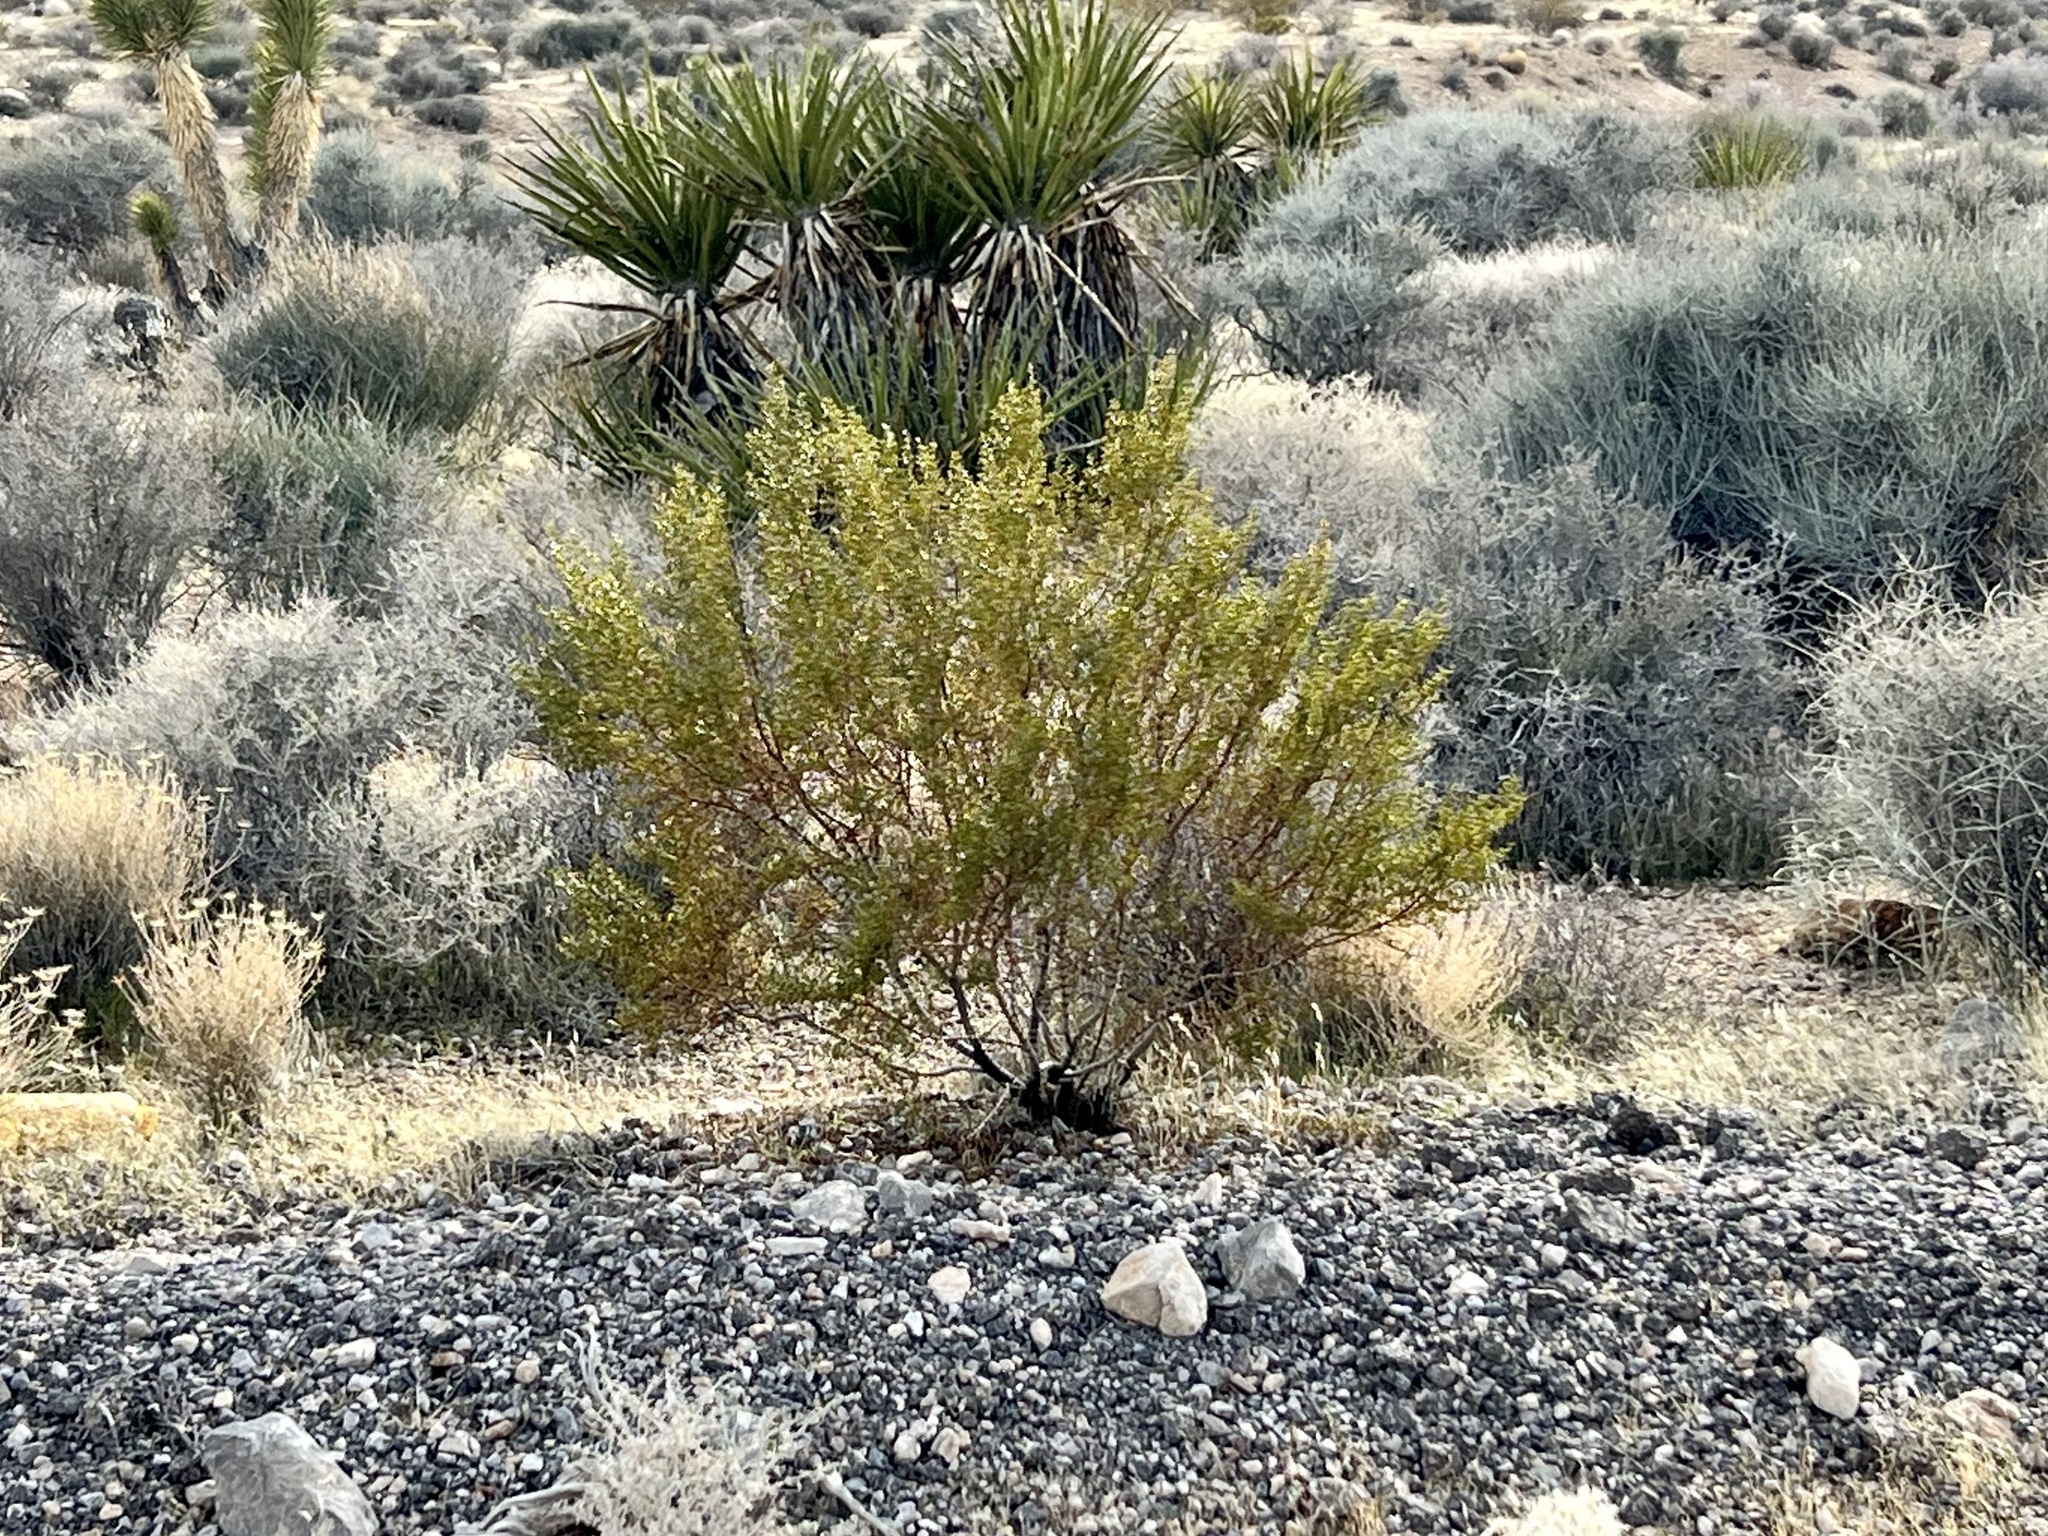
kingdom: Plantae
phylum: Tracheophyta
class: Magnoliopsida
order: Zygophyllales
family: Zygophyllaceae
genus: Larrea
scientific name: Larrea tridentata
